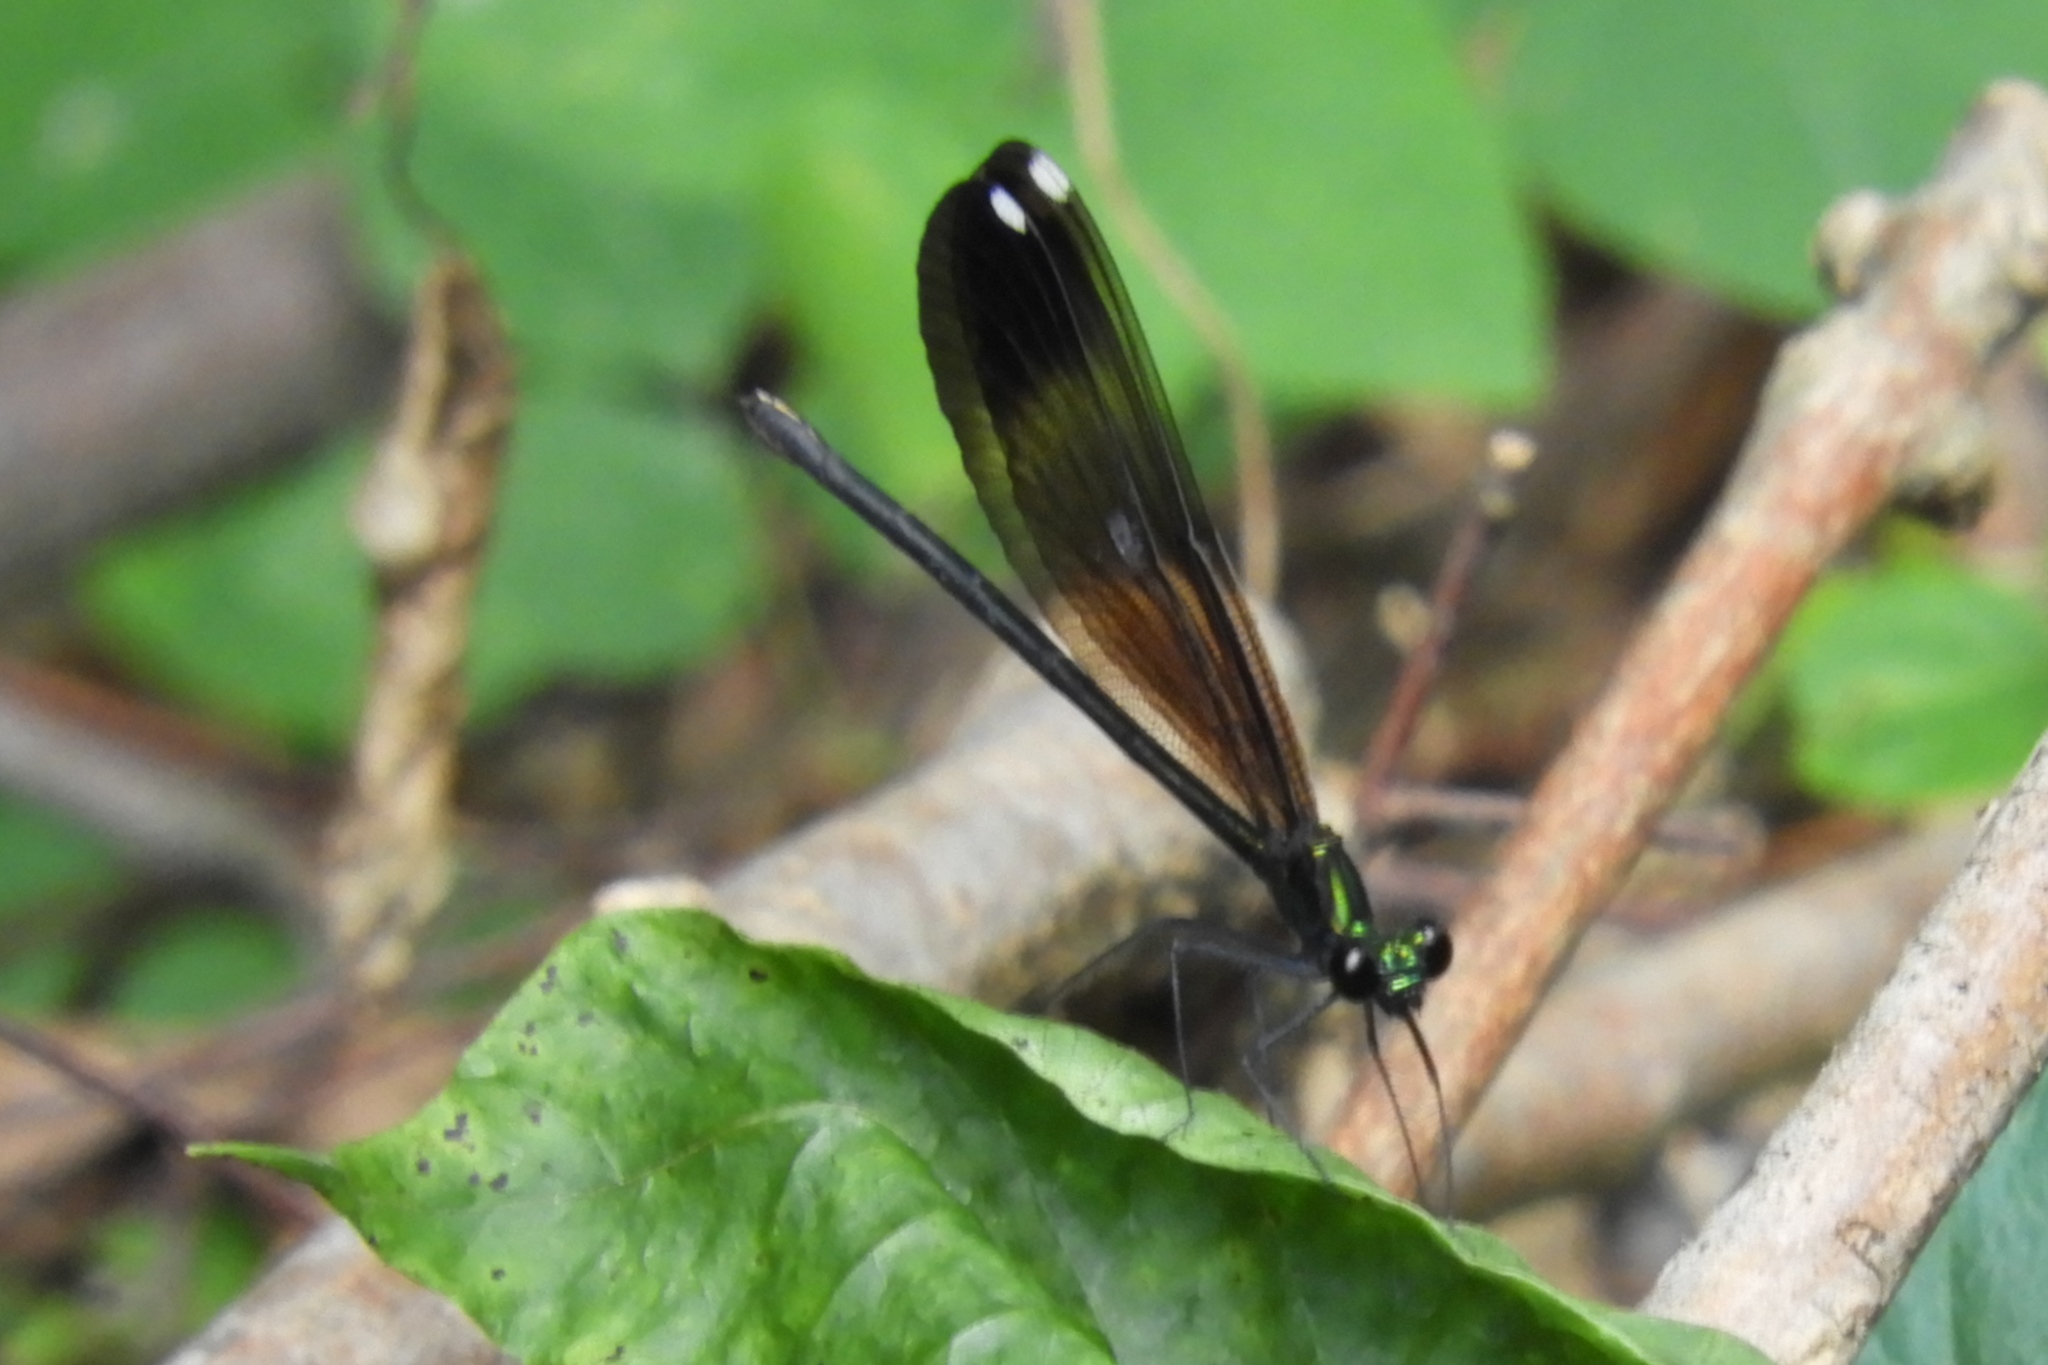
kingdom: Animalia
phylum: Arthropoda
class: Insecta
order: Odonata
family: Calopterygidae
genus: Calopteryx
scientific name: Calopteryx maculata
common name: Ebony jewelwing
